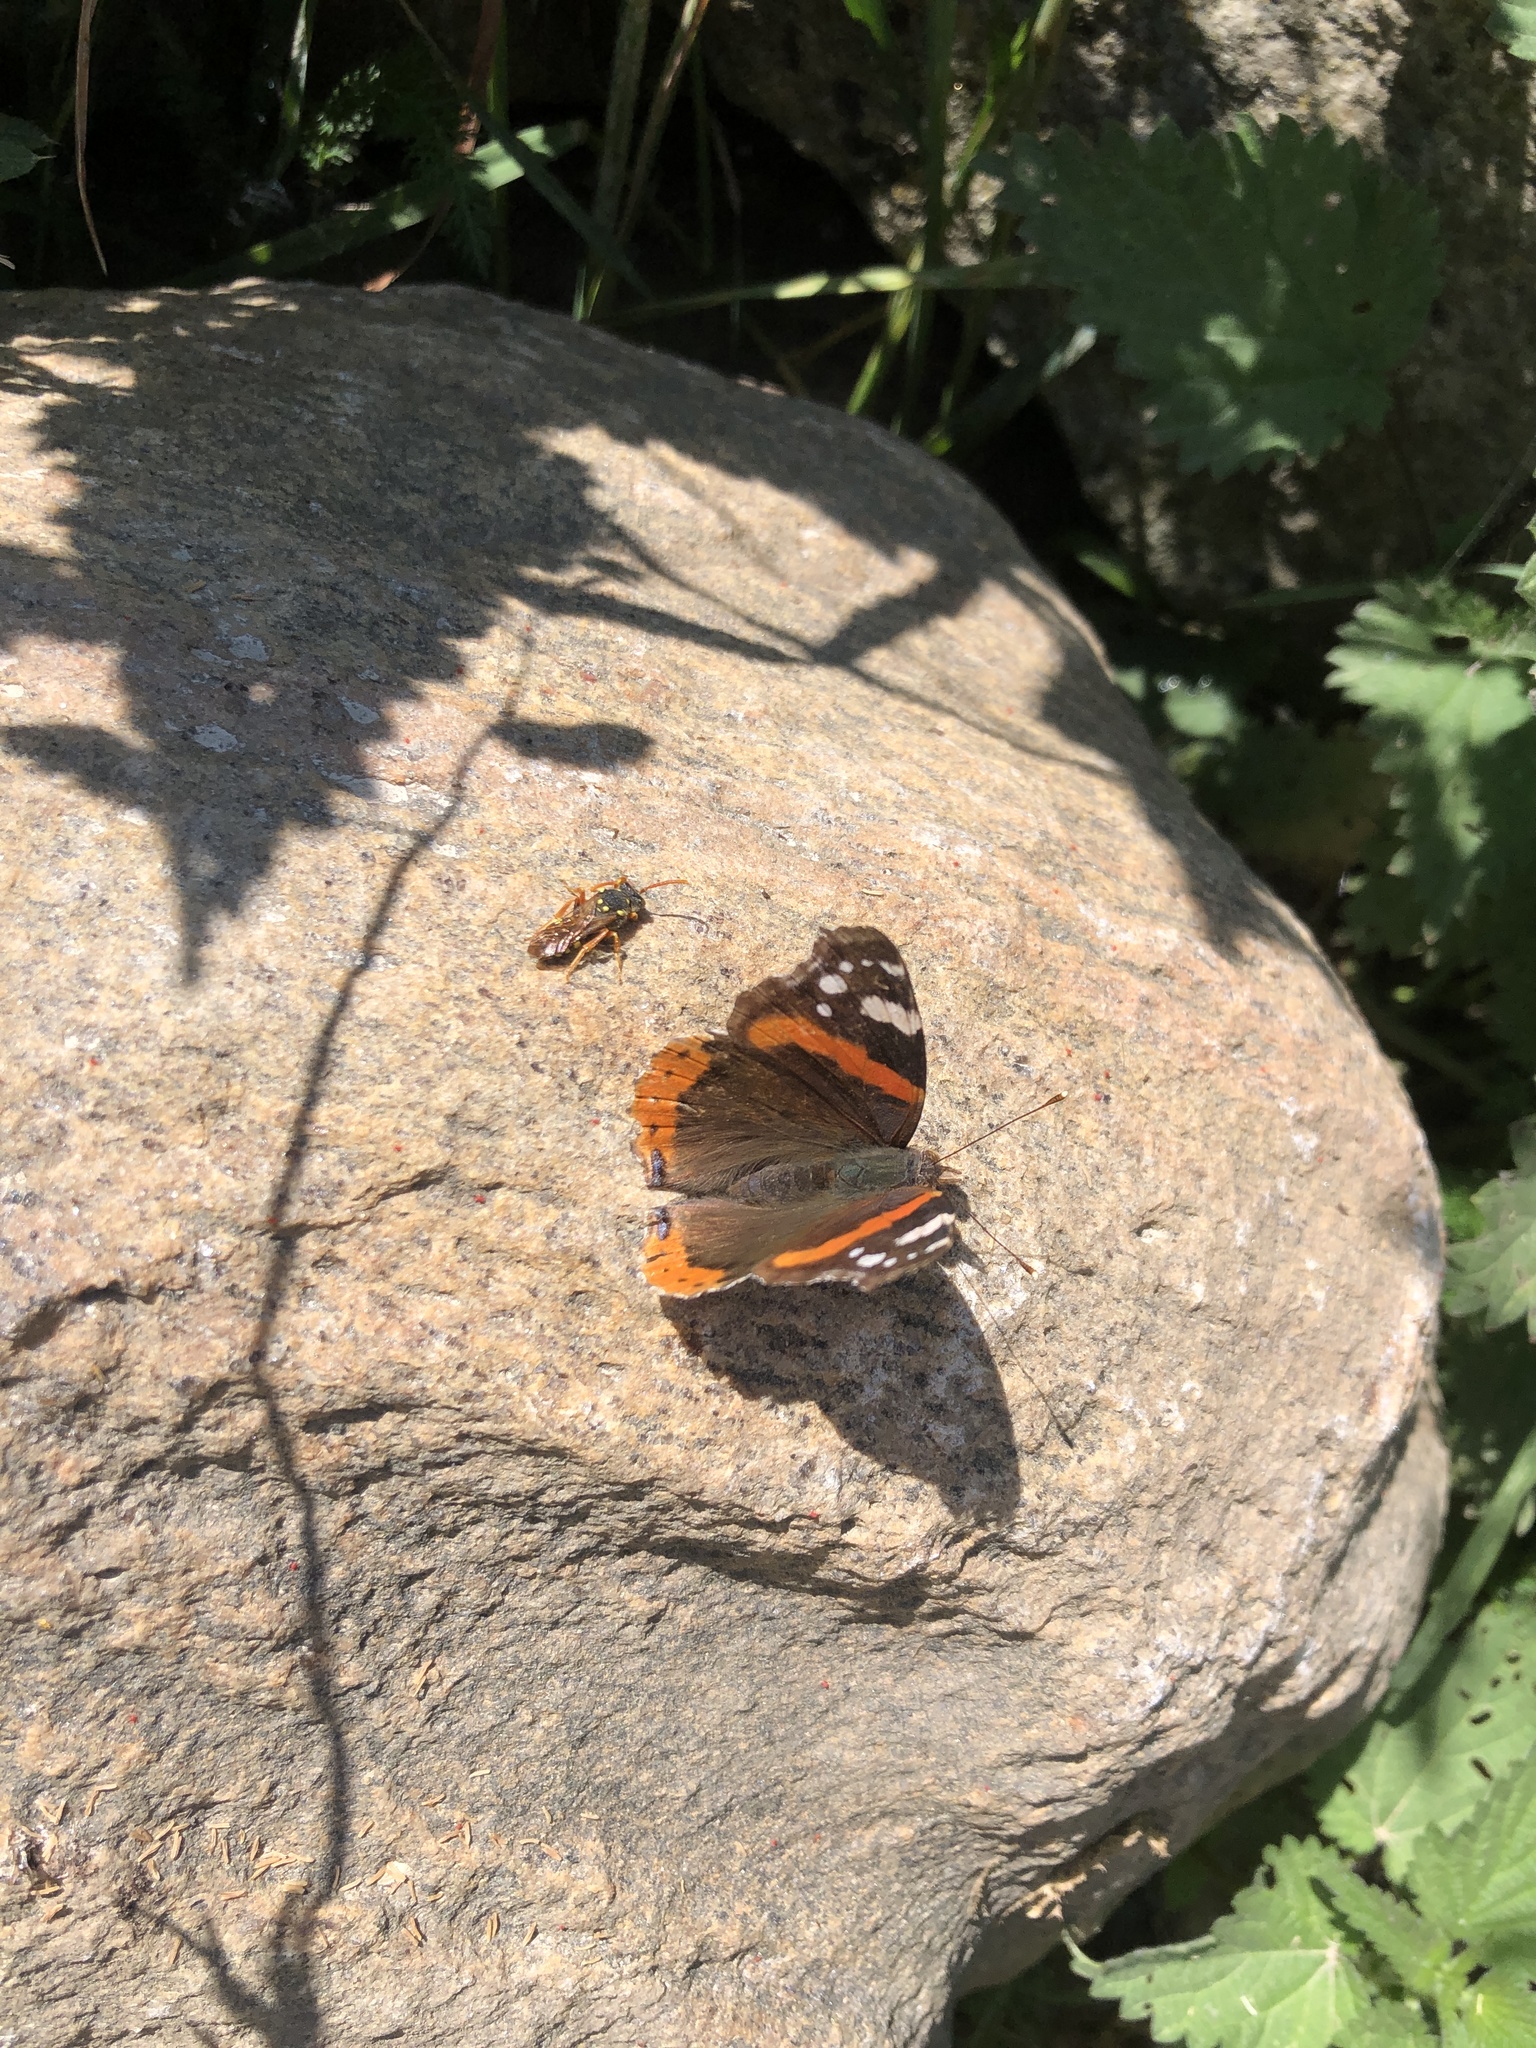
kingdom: Animalia
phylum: Arthropoda
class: Insecta
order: Lepidoptera
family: Nymphalidae
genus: Vanessa
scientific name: Vanessa atalanta
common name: Red admiral
